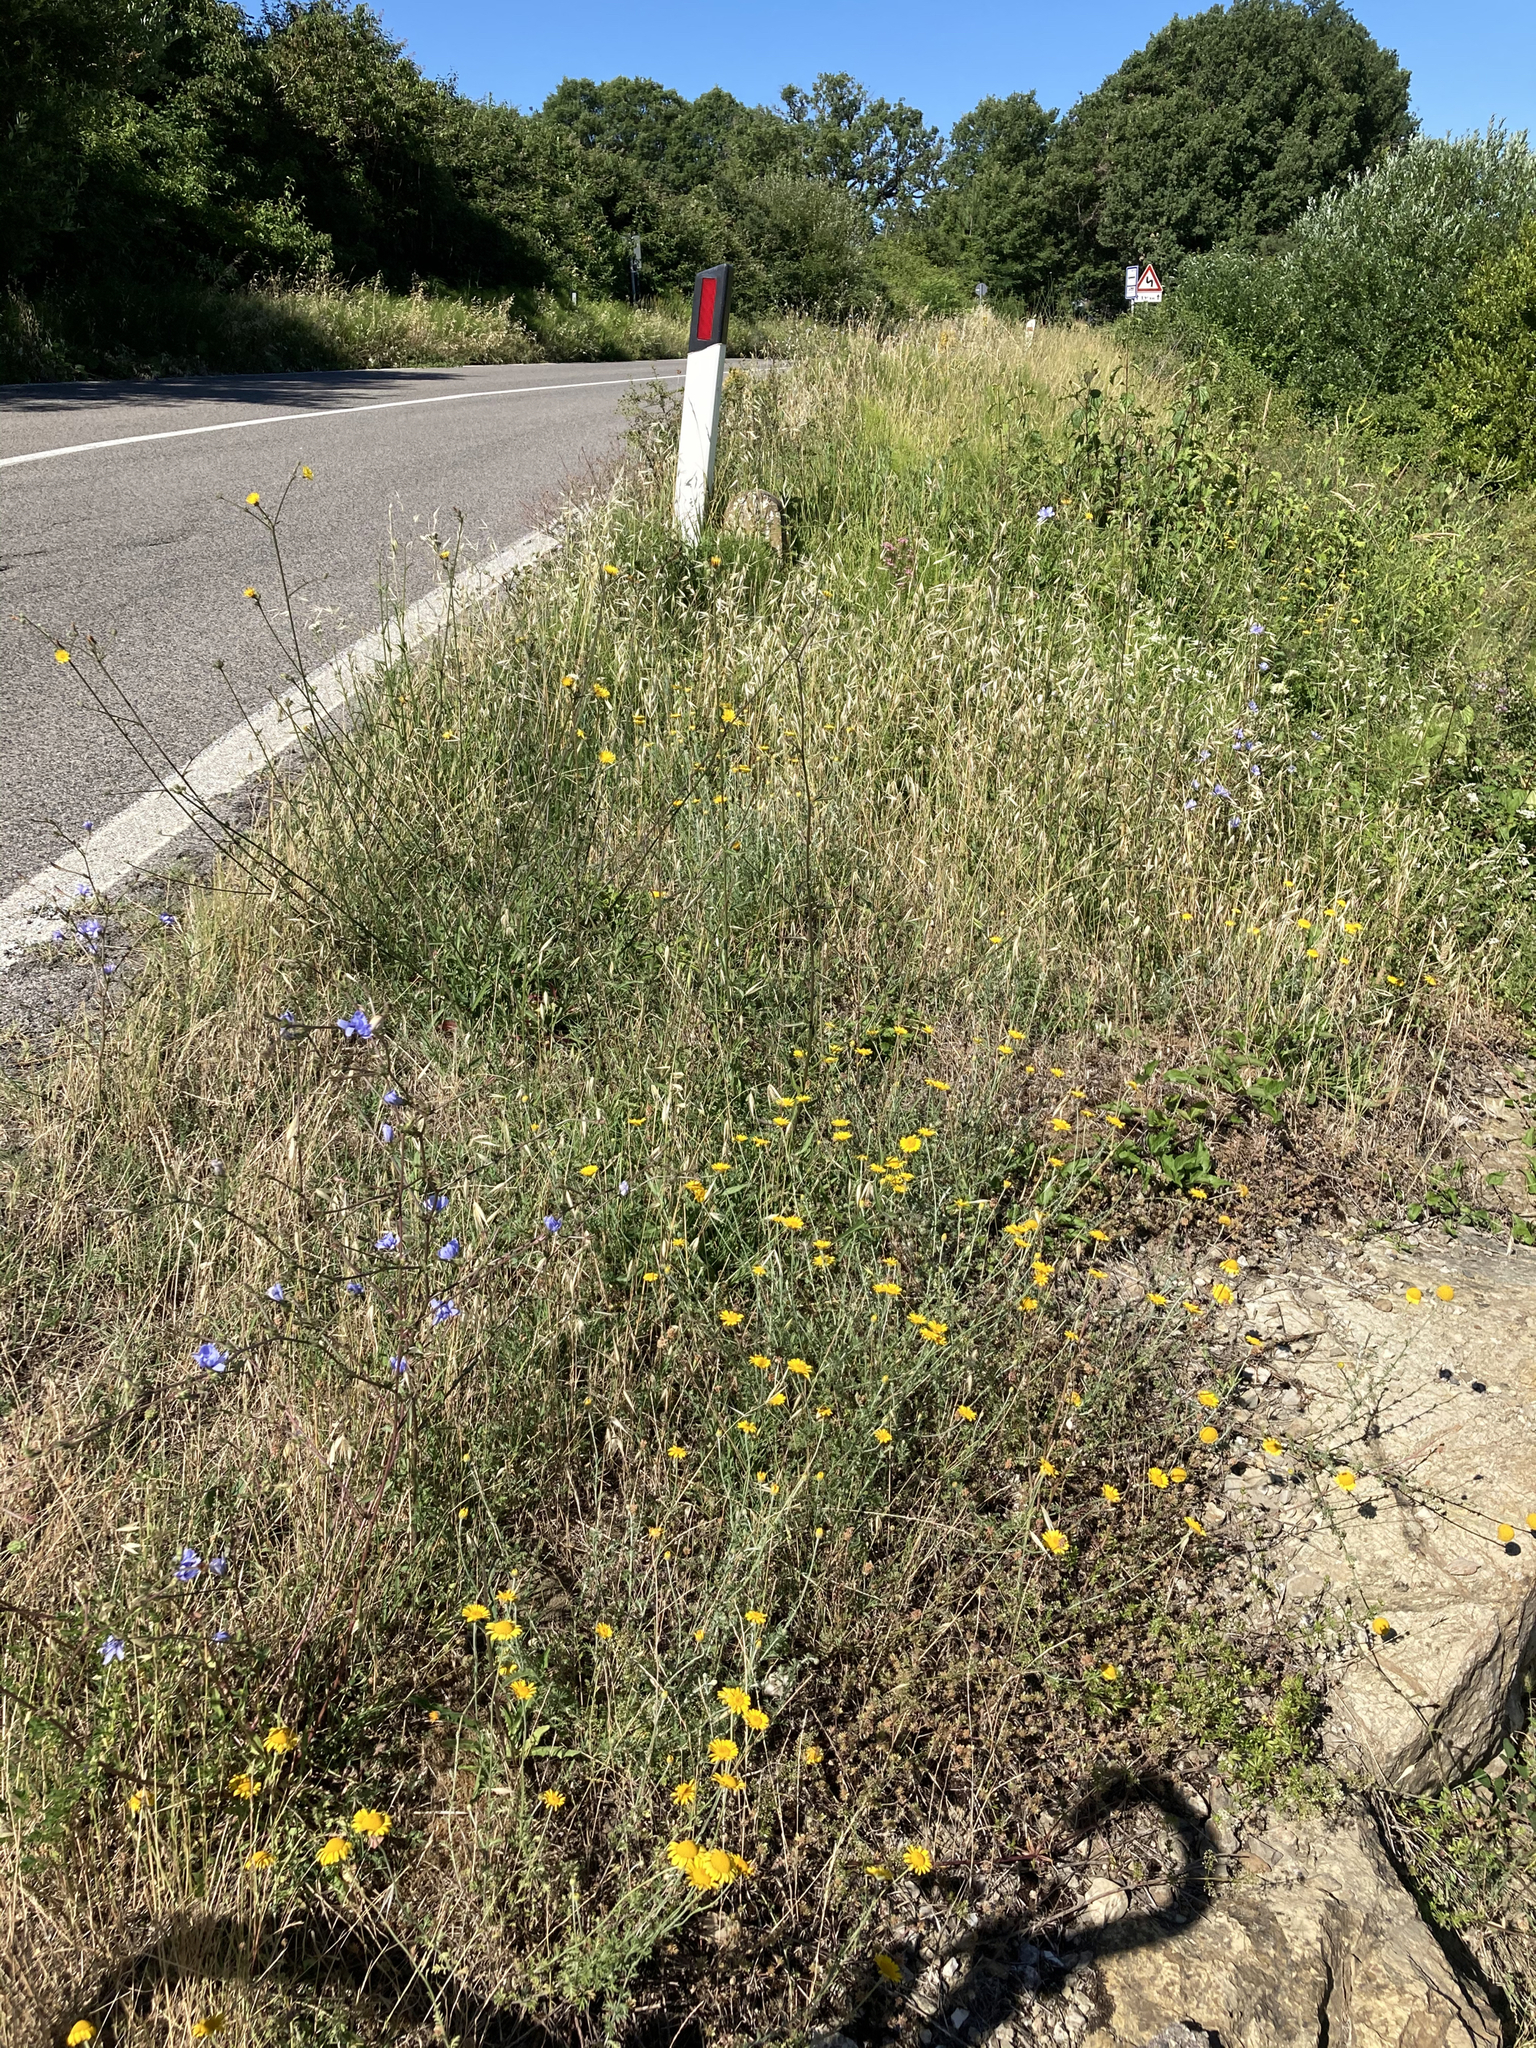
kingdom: Plantae
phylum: Tracheophyta
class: Magnoliopsida
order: Asterales
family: Asteraceae
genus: Cota
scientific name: Cota tinctoria
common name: Golden chamomile
